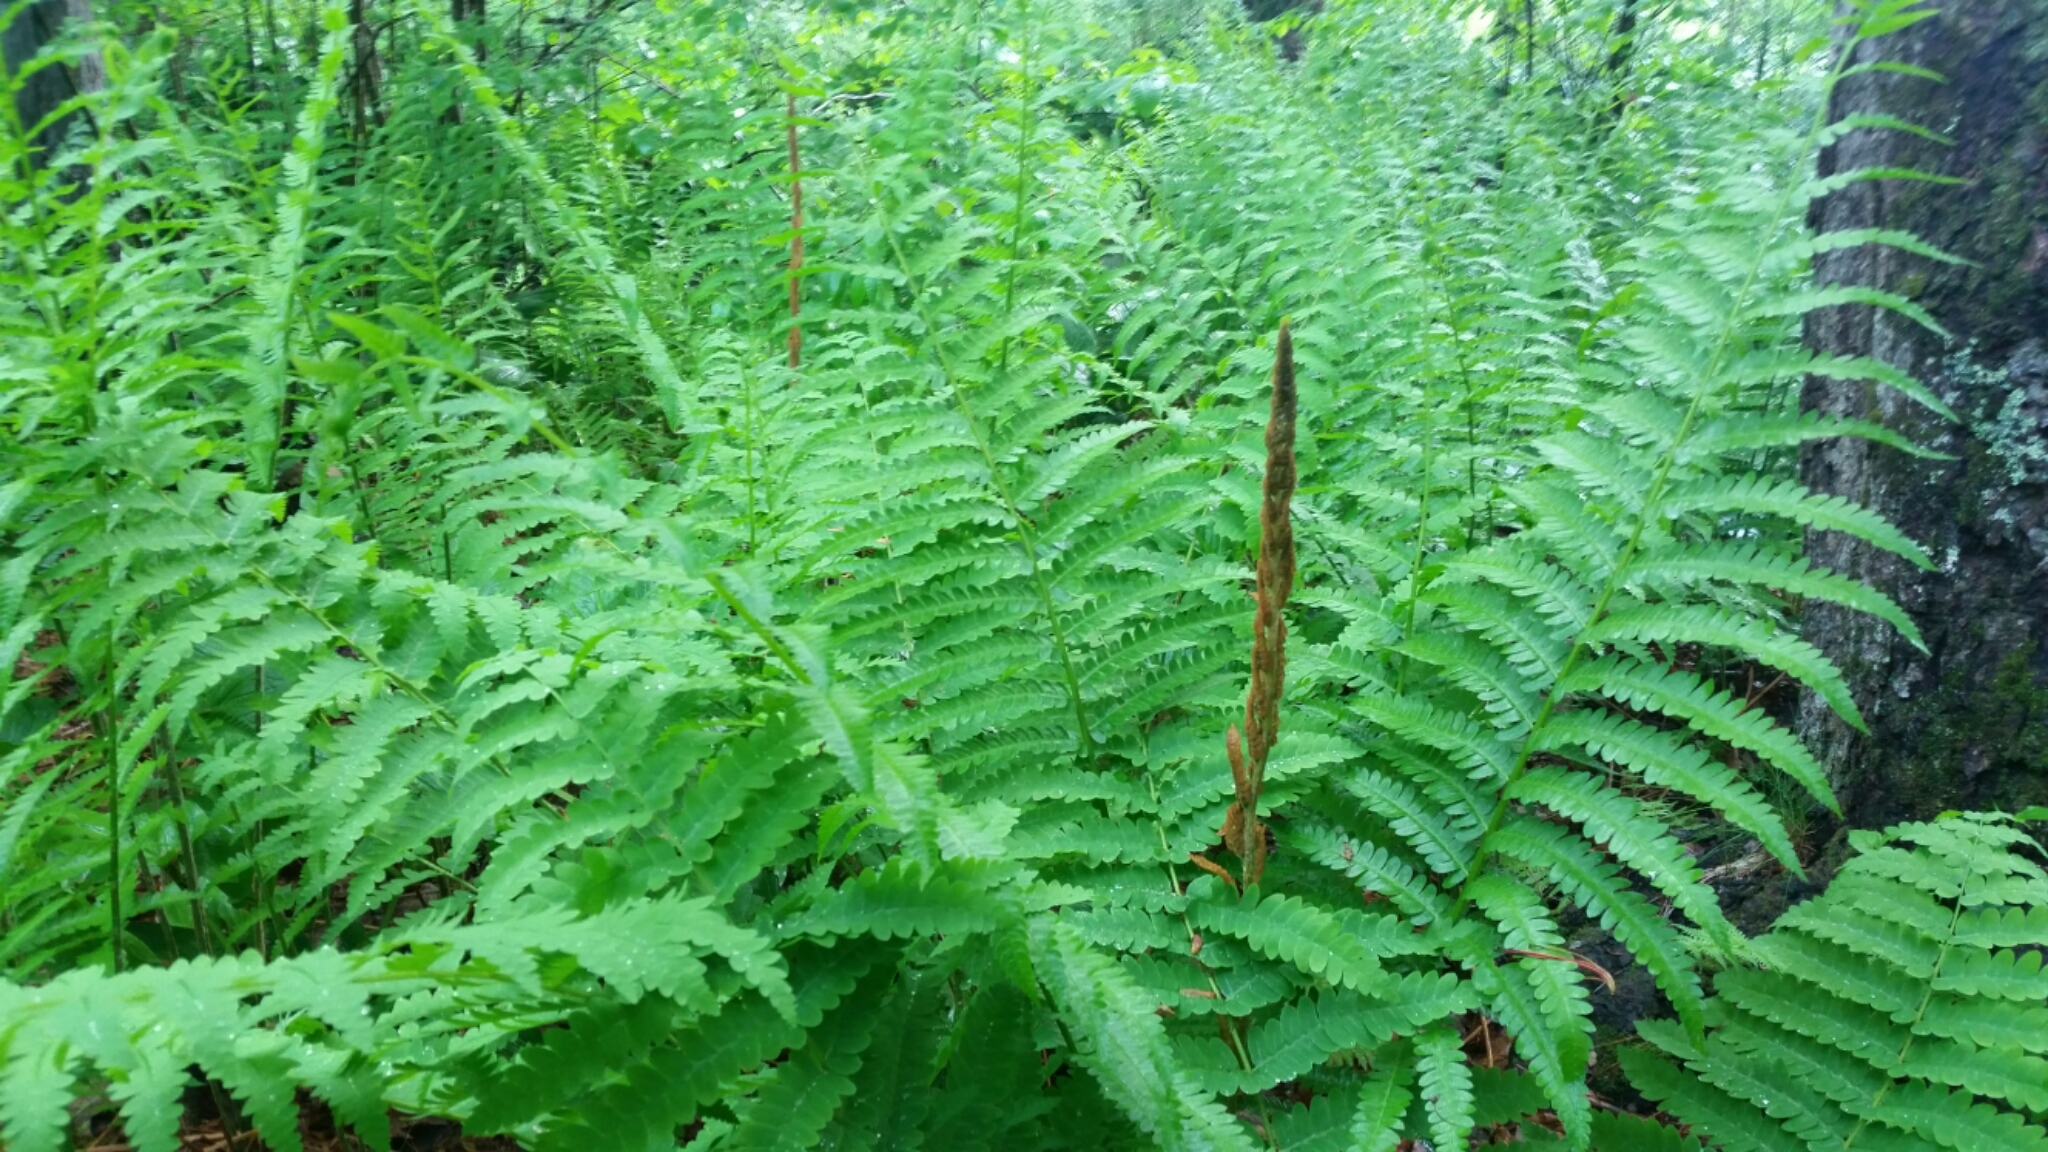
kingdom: Plantae
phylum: Tracheophyta
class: Polypodiopsida
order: Osmundales
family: Osmundaceae
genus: Osmundastrum
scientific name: Osmundastrum cinnamomeum
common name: Cinnamon fern
